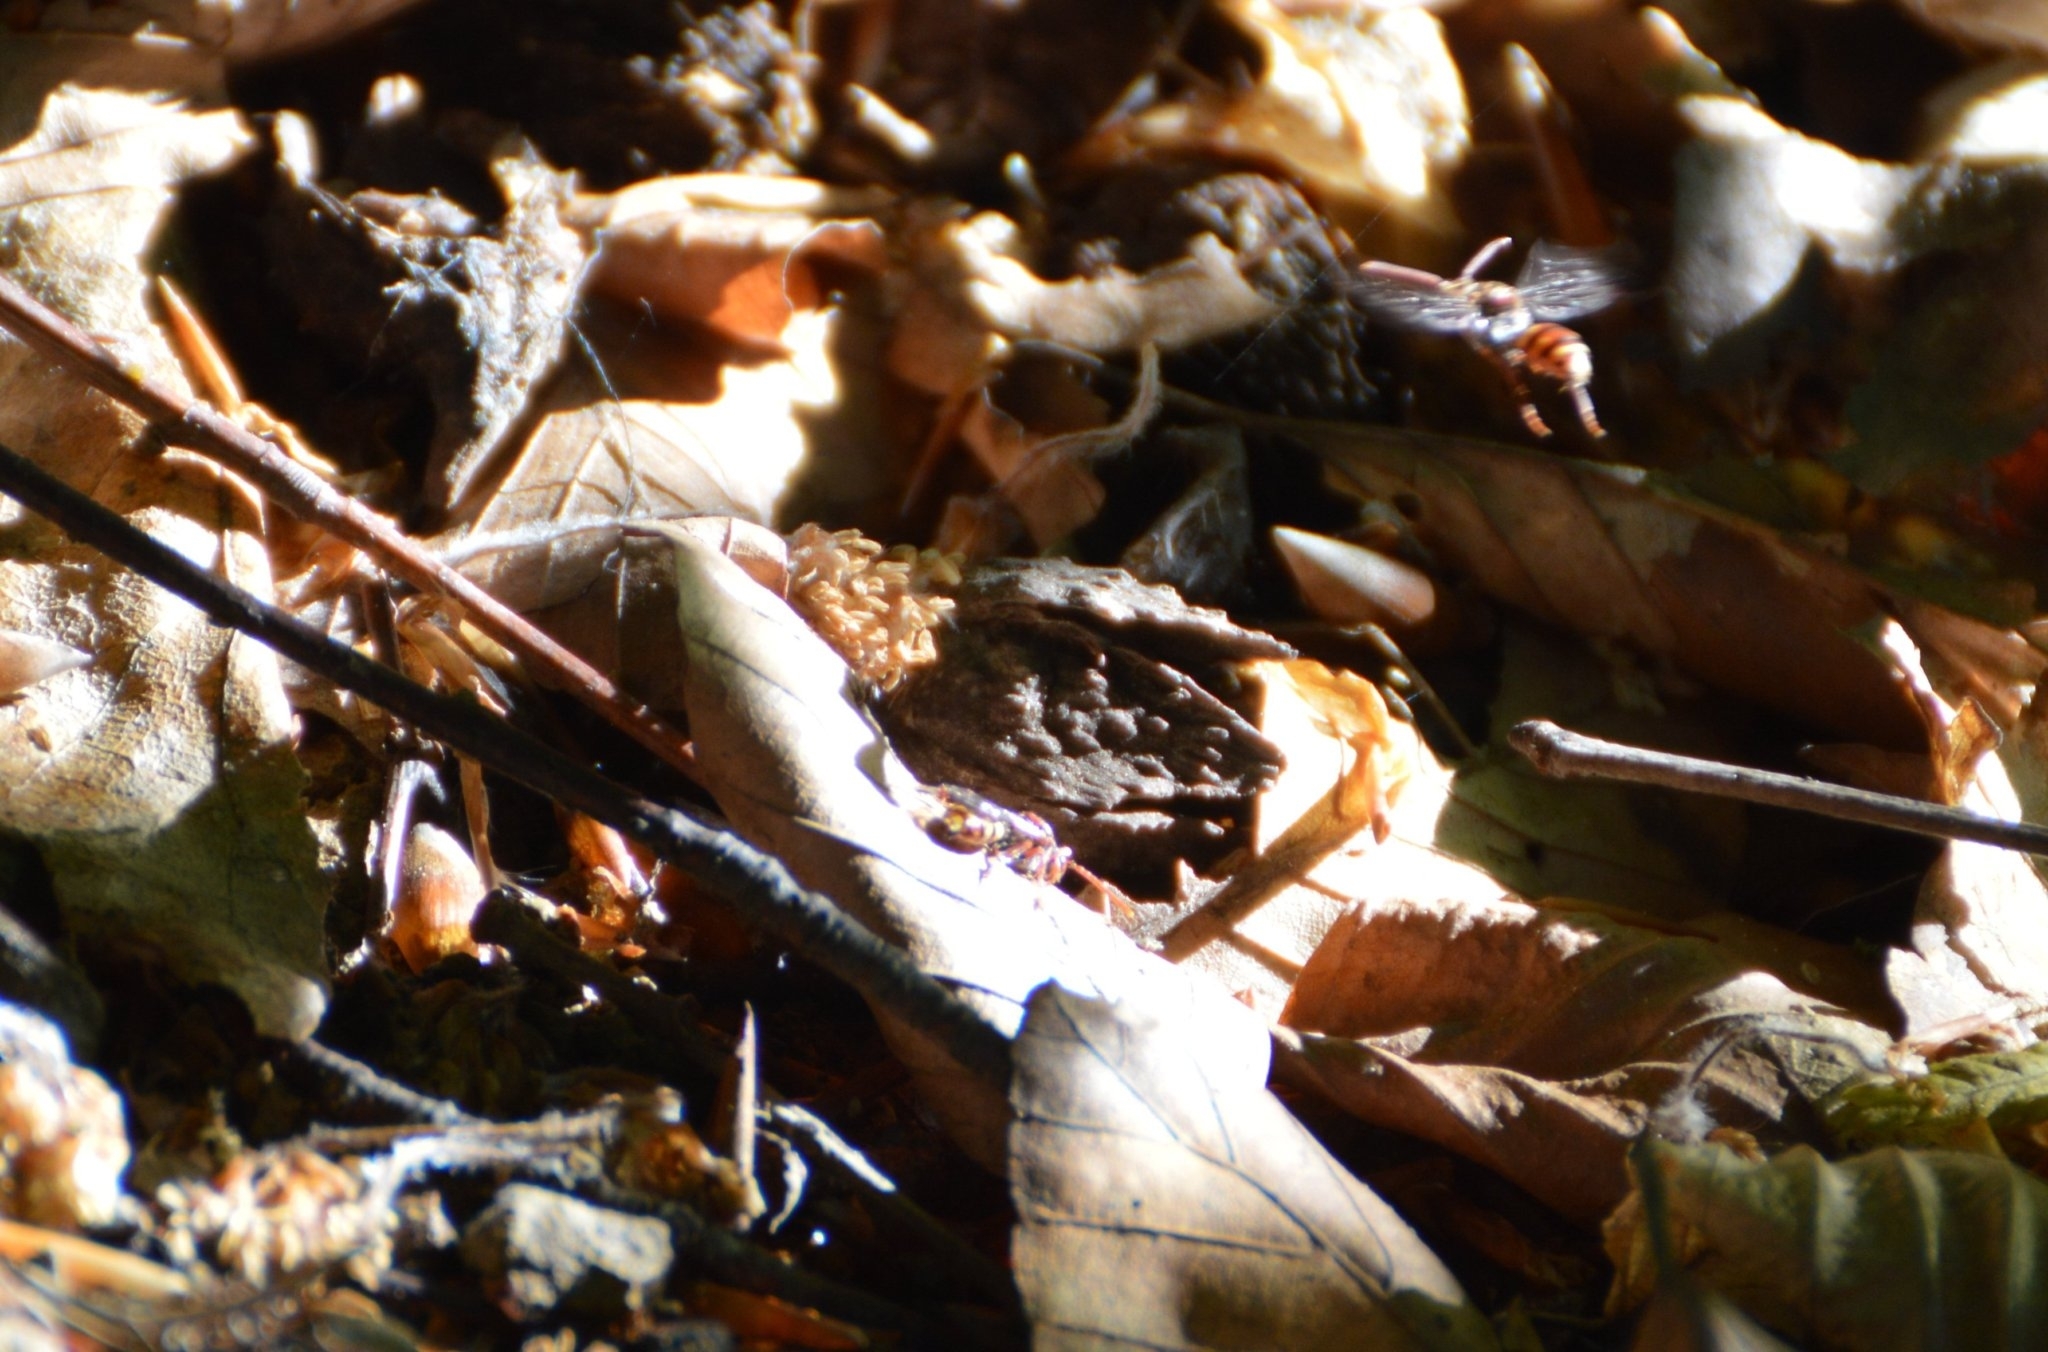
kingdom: Animalia
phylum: Arthropoda
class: Insecta
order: Hymenoptera
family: Apidae
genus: Nomada
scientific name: Nomada
